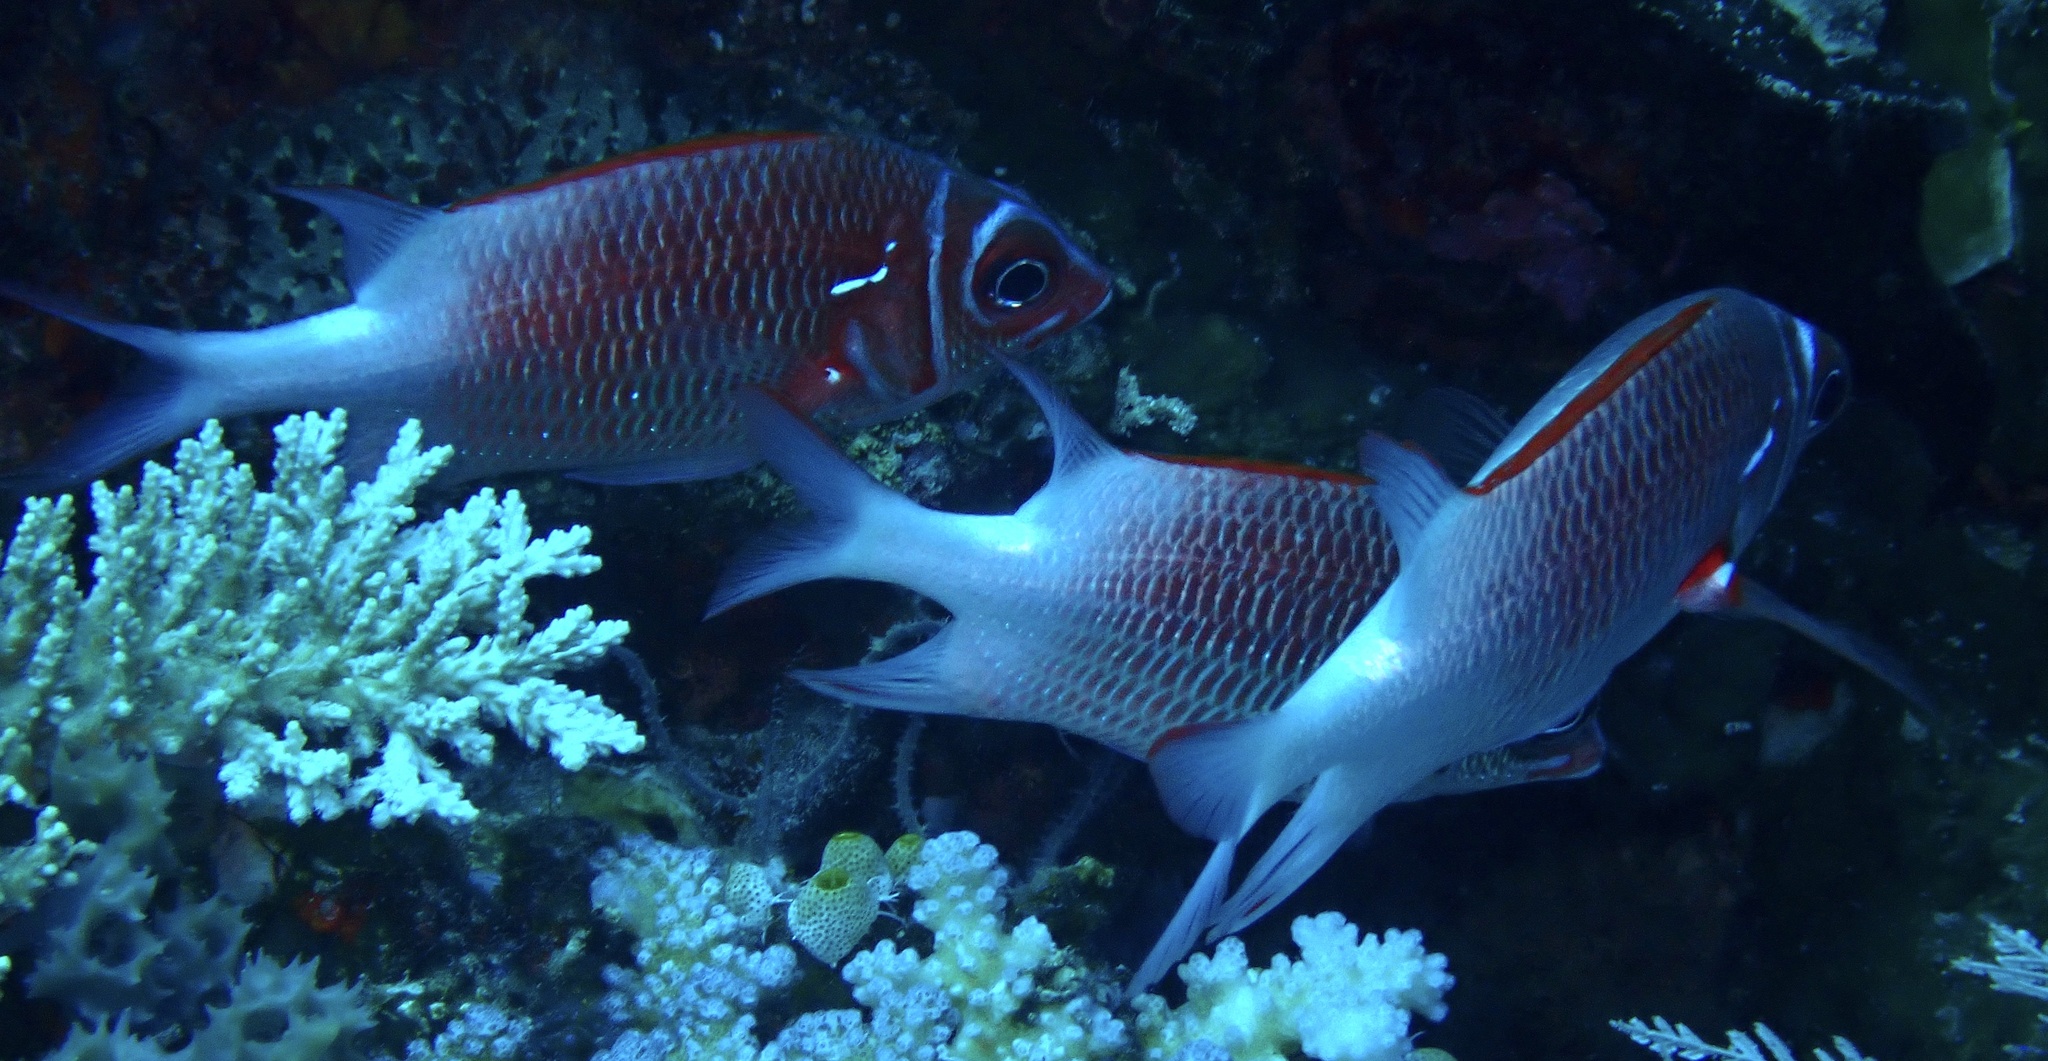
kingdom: Animalia
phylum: Chordata
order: Beryciformes
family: Holocentridae
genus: Sargocentron
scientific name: Sargocentron caudimaculatum
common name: Fanfin soldier
